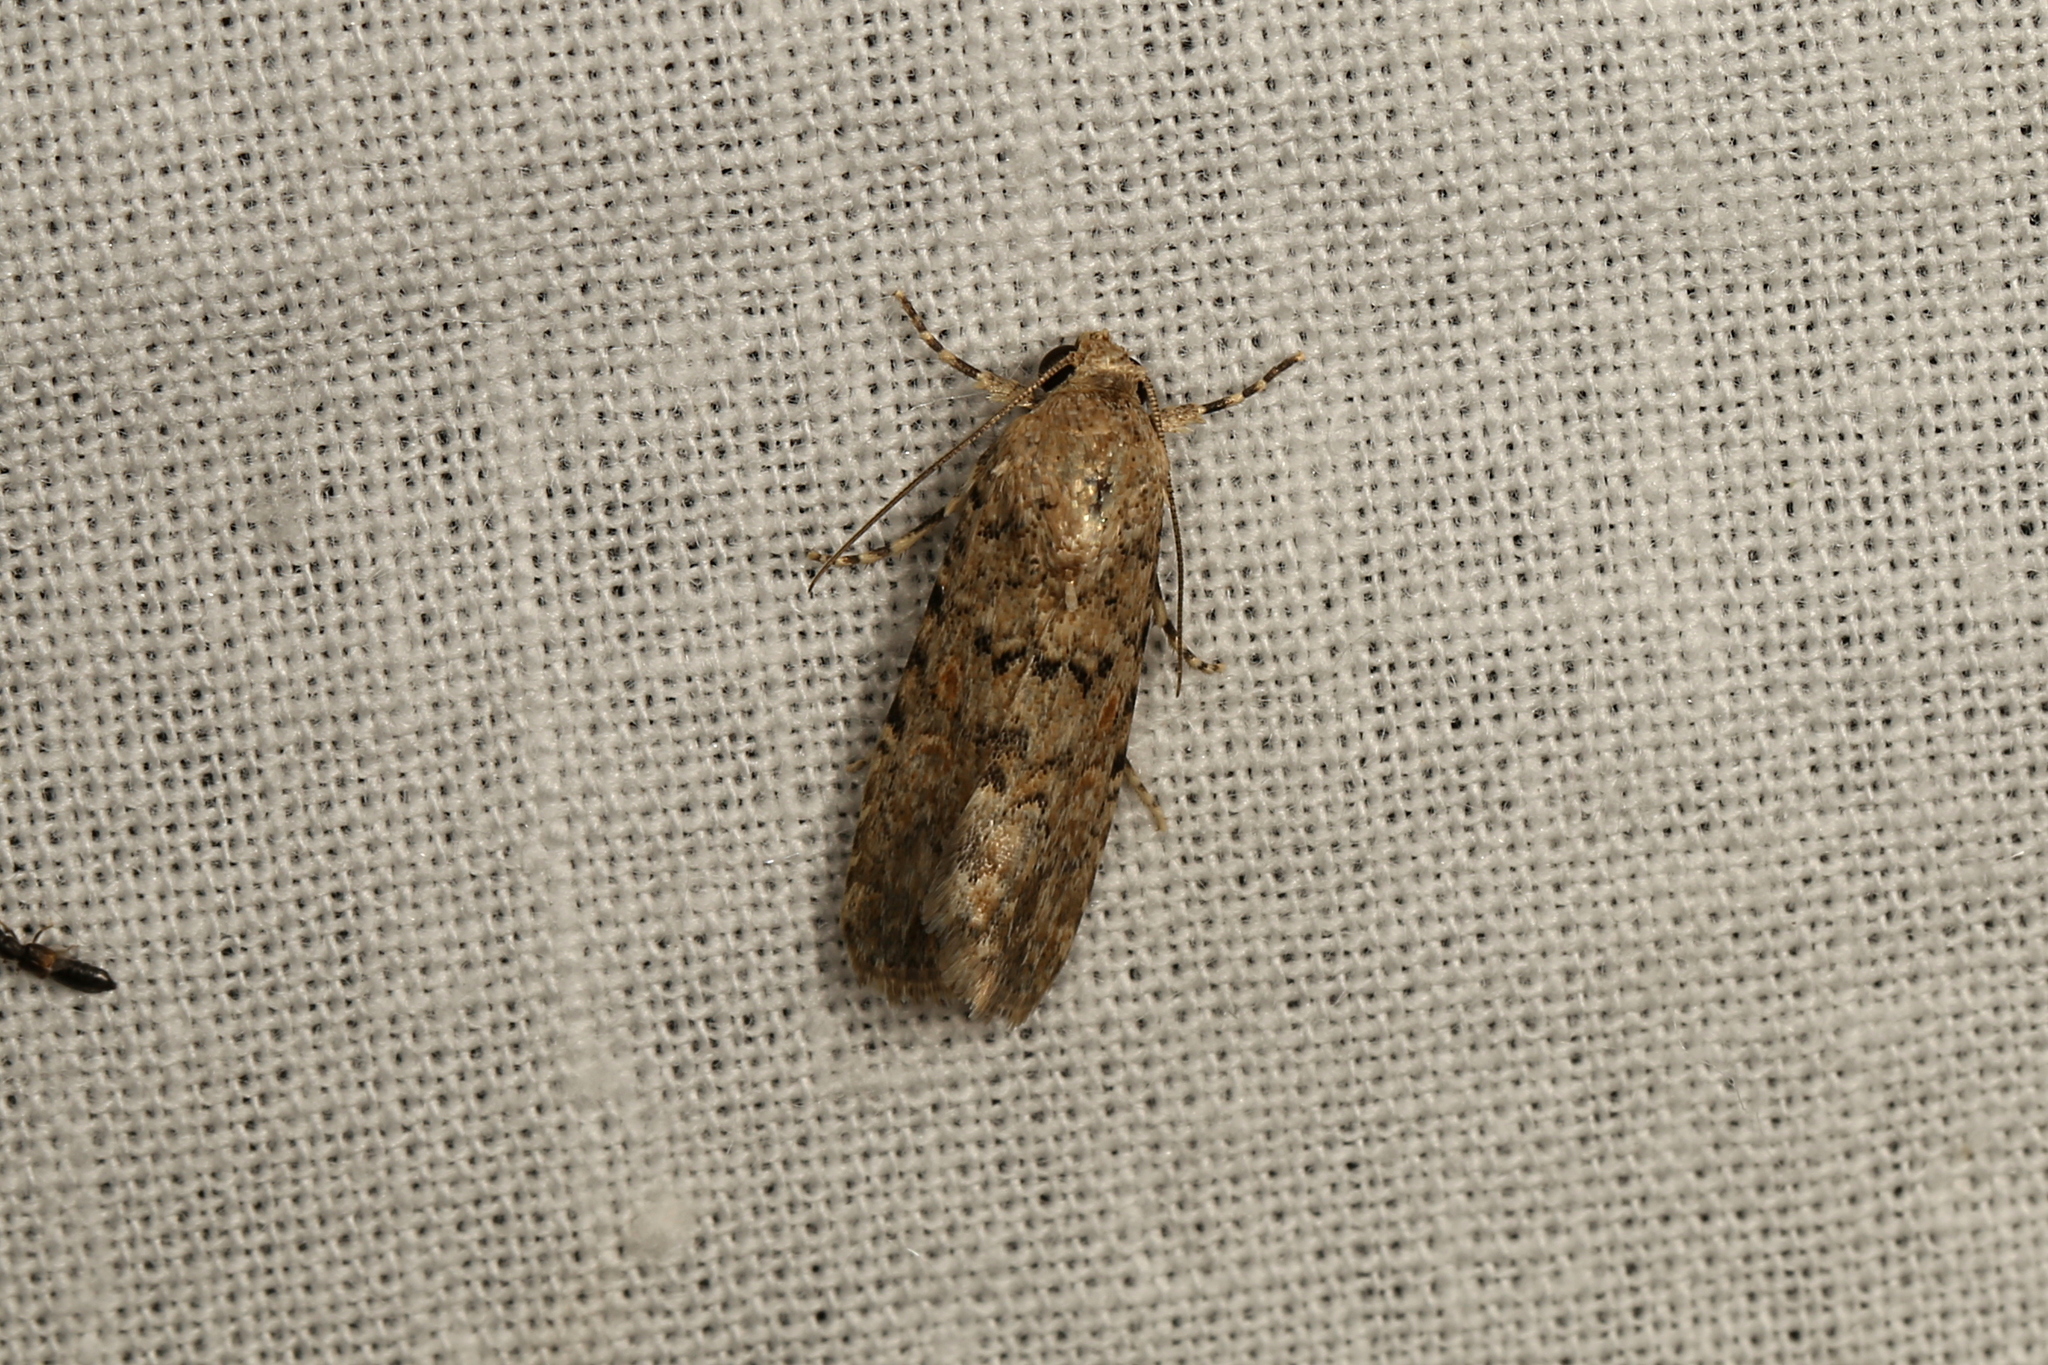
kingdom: Animalia
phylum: Arthropoda
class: Insecta
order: Lepidoptera
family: Noctuidae
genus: Spodoptera
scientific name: Spodoptera exigua
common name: Beet armyworm
